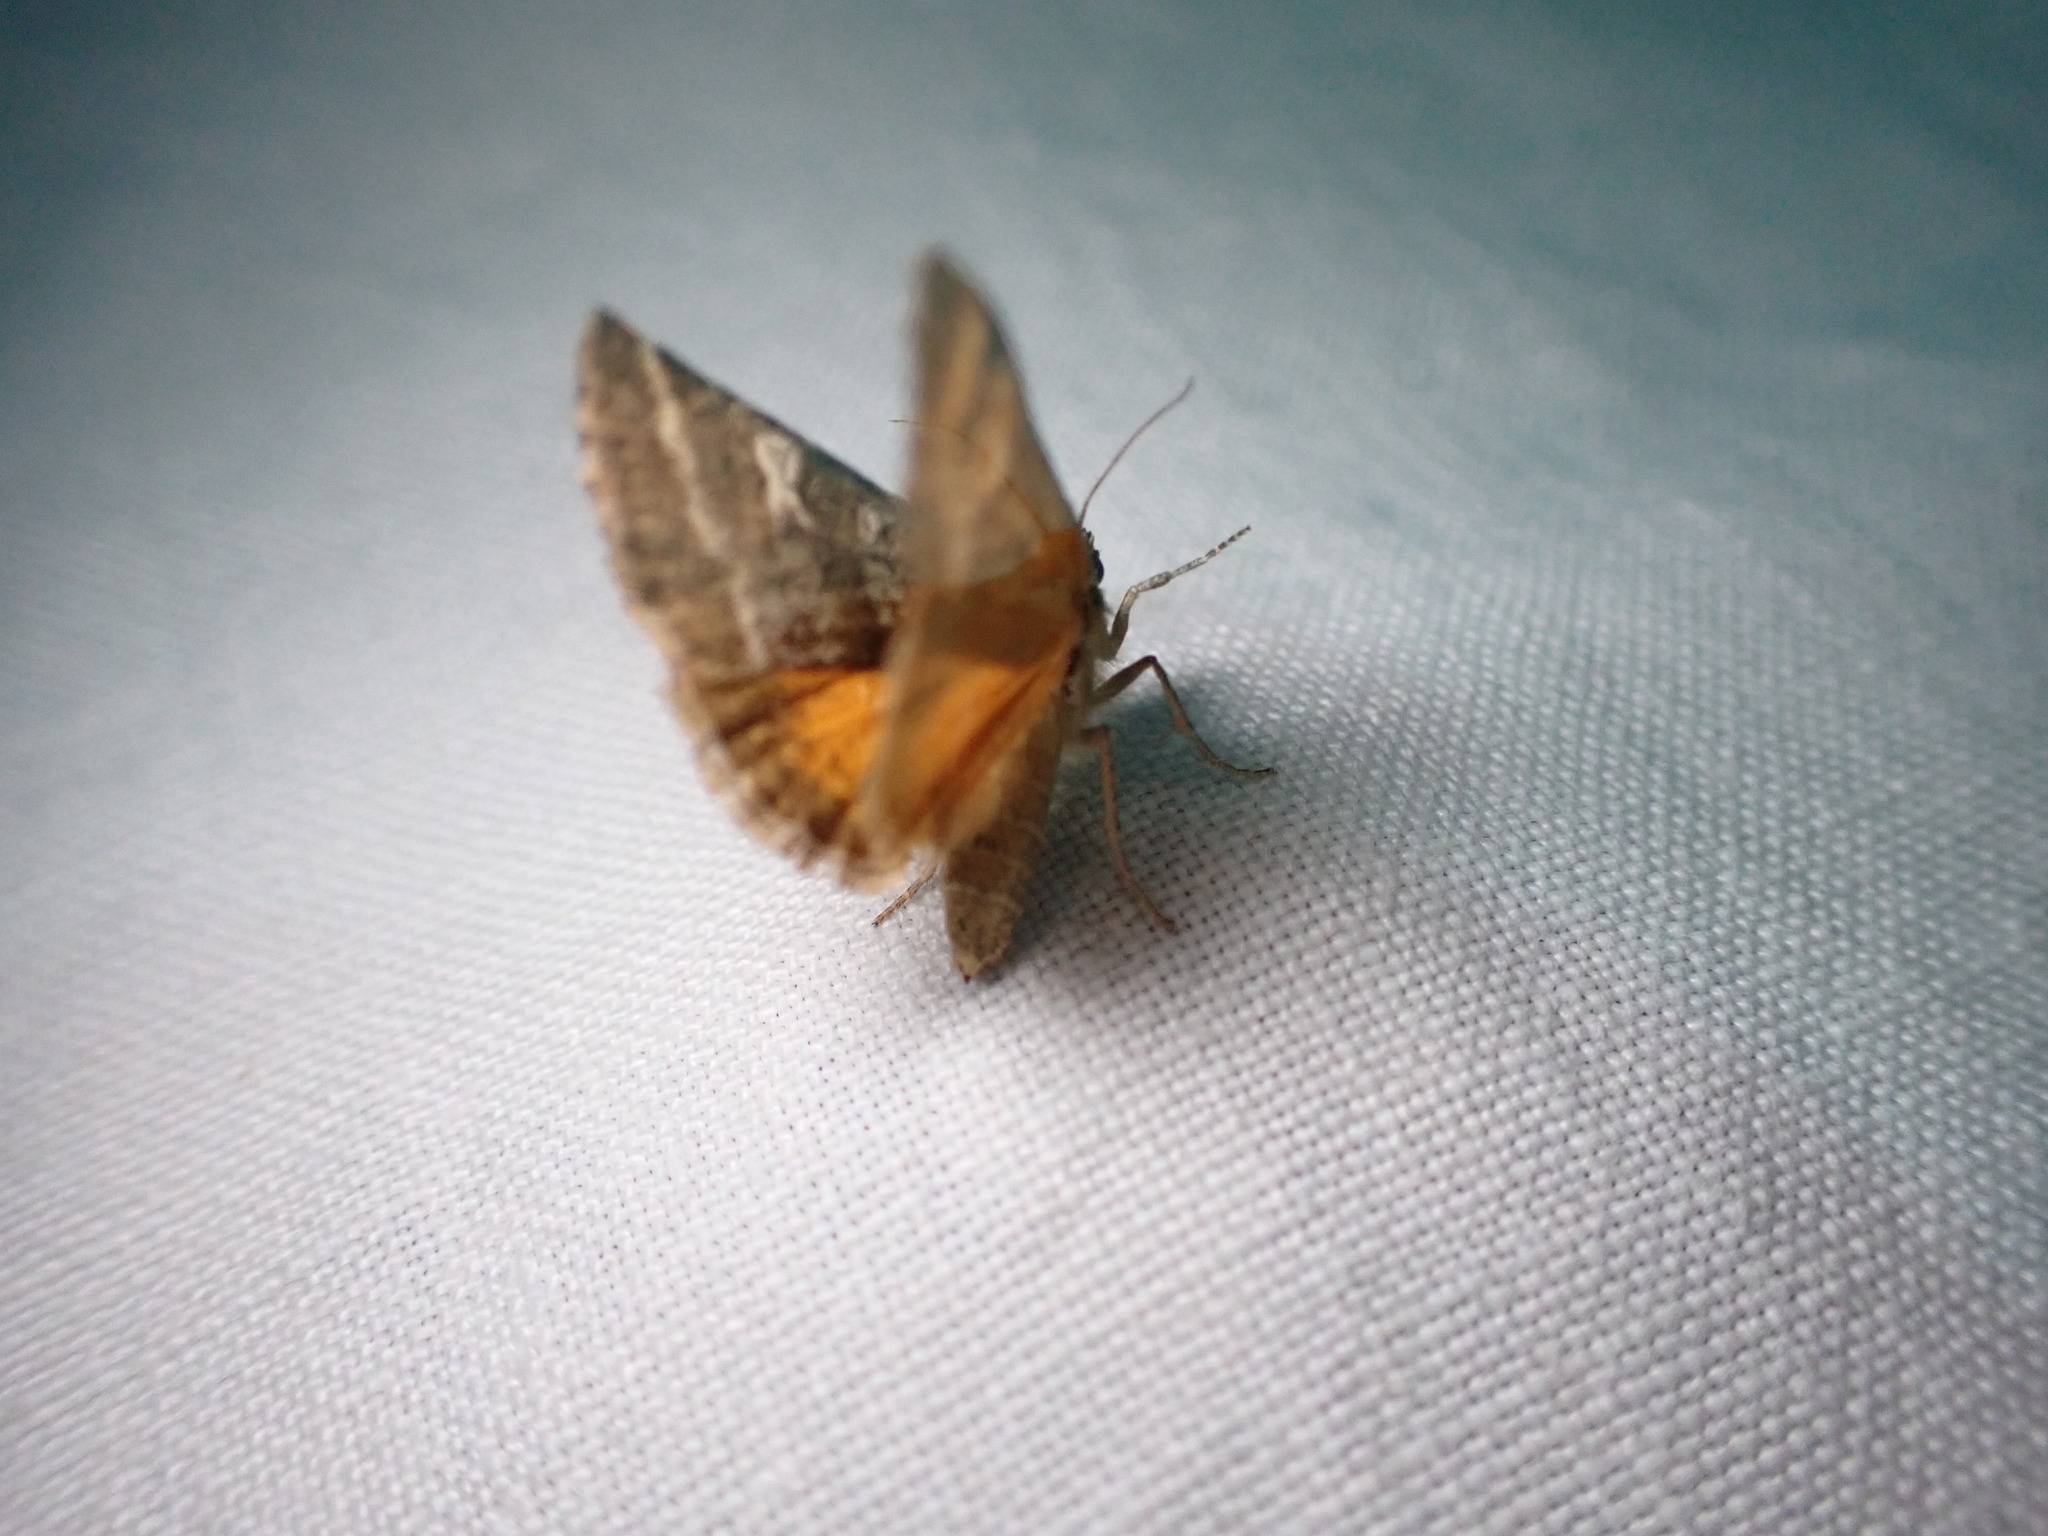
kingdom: Animalia
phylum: Arthropoda
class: Insecta
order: Lepidoptera
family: Noctuidae
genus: Synthymia
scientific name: Synthymia fixa
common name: Goldwing
